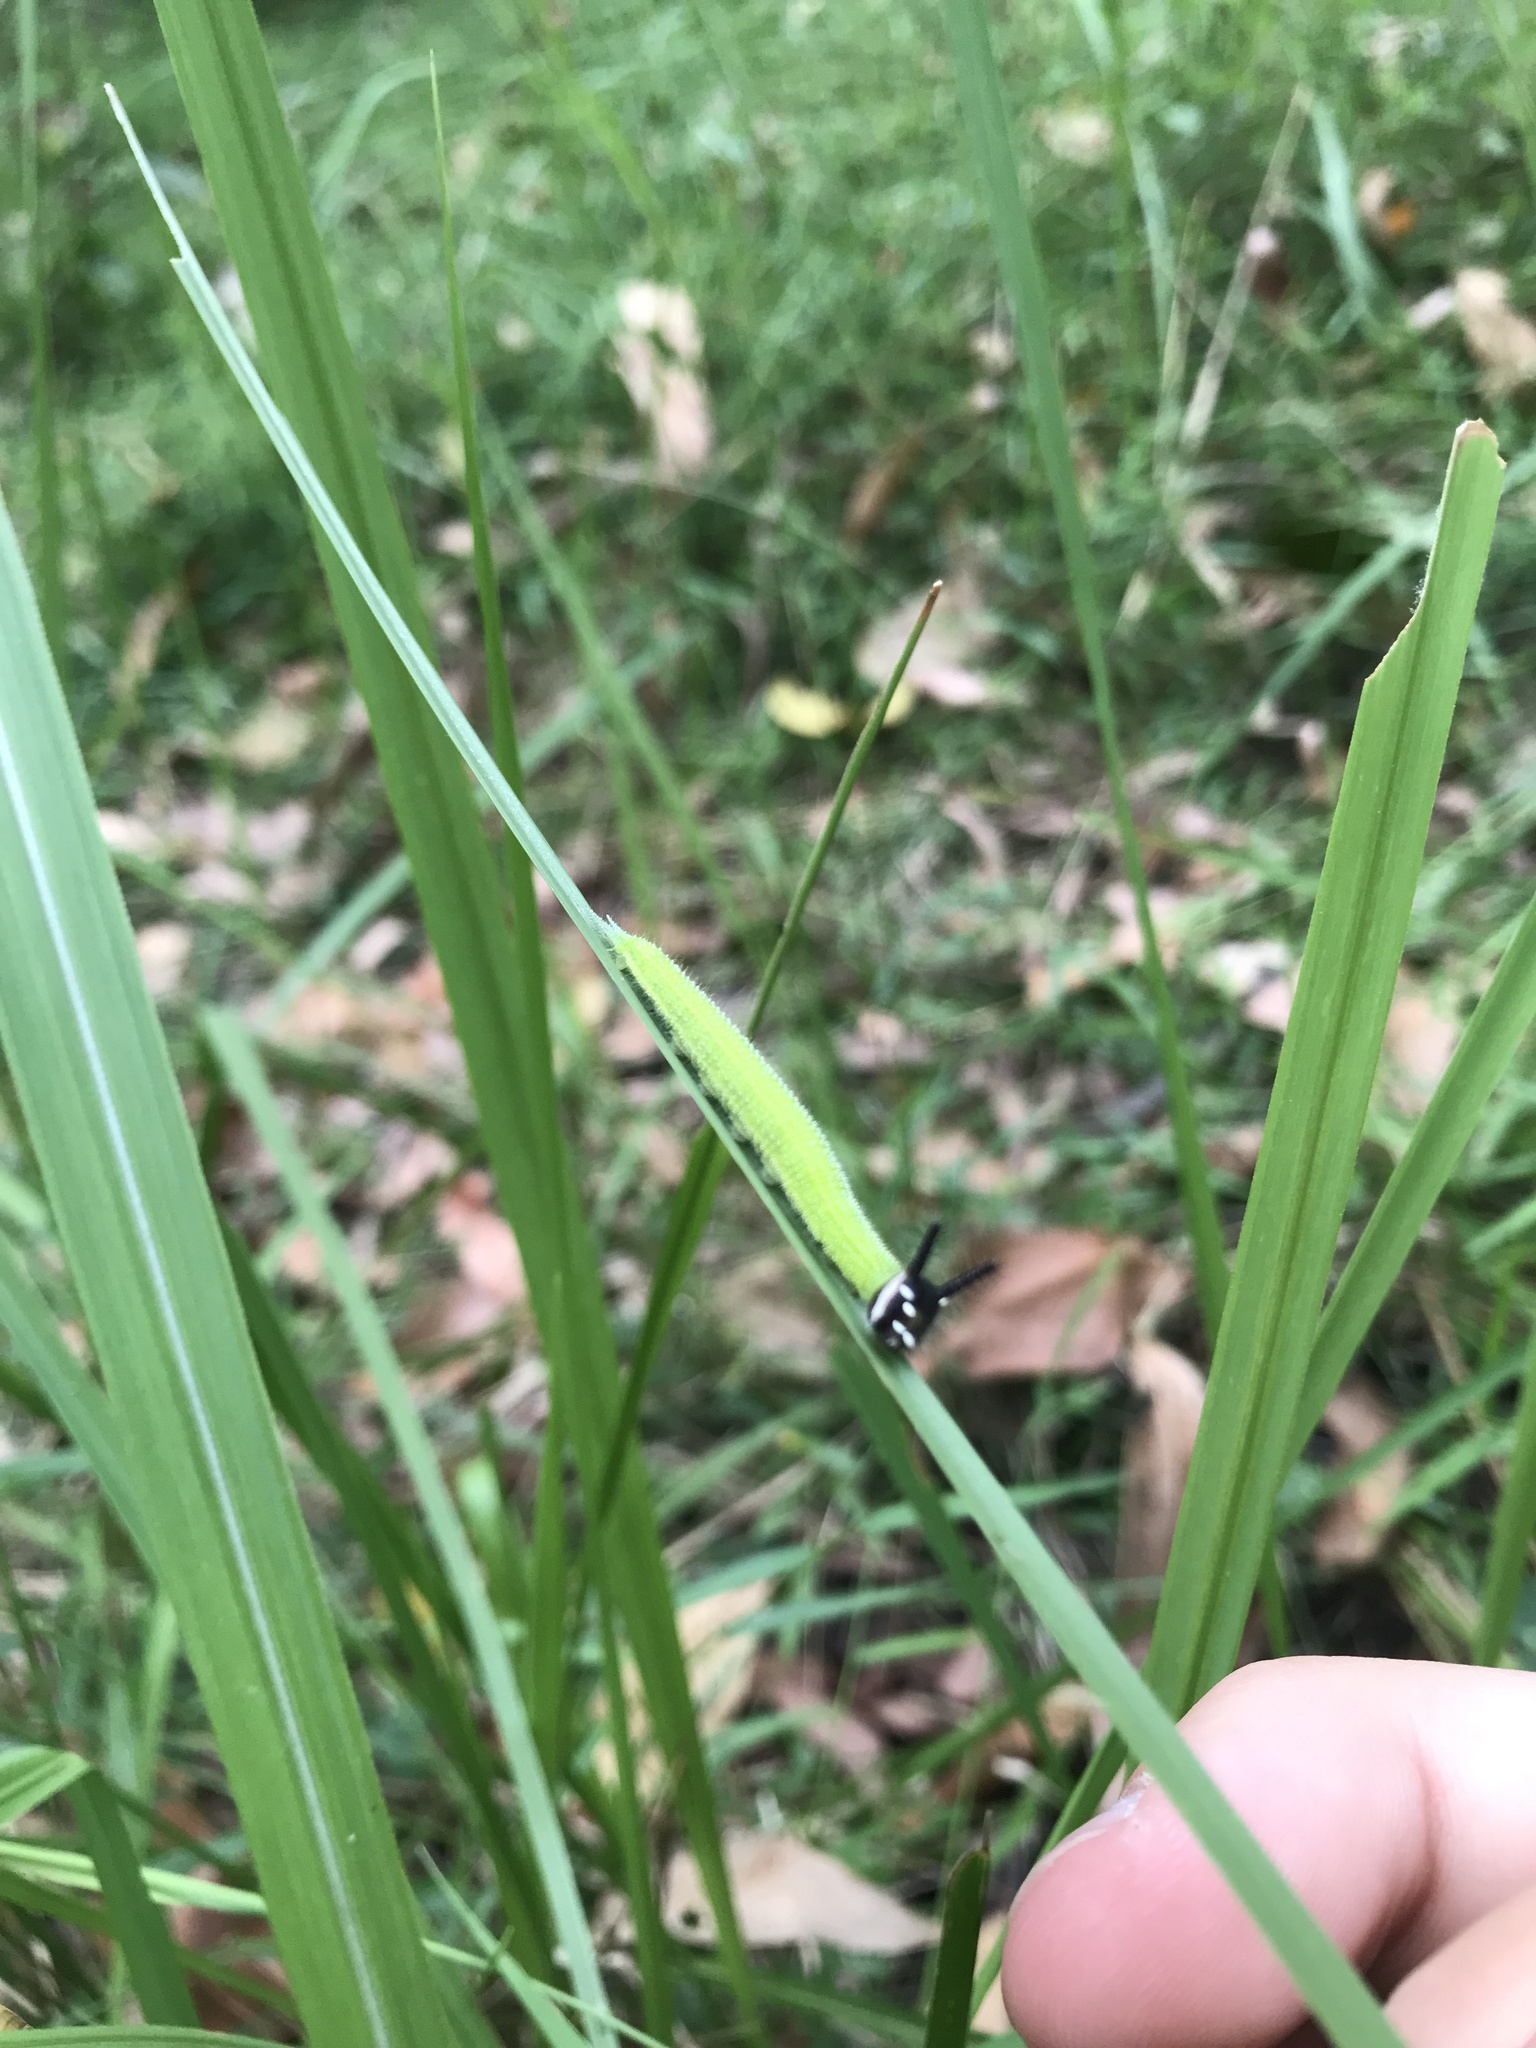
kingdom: Animalia
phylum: Arthropoda
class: Insecta
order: Lepidoptera
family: Nymphalidae
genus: Melanitis
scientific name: Melanitis leda
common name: Twilight brown
